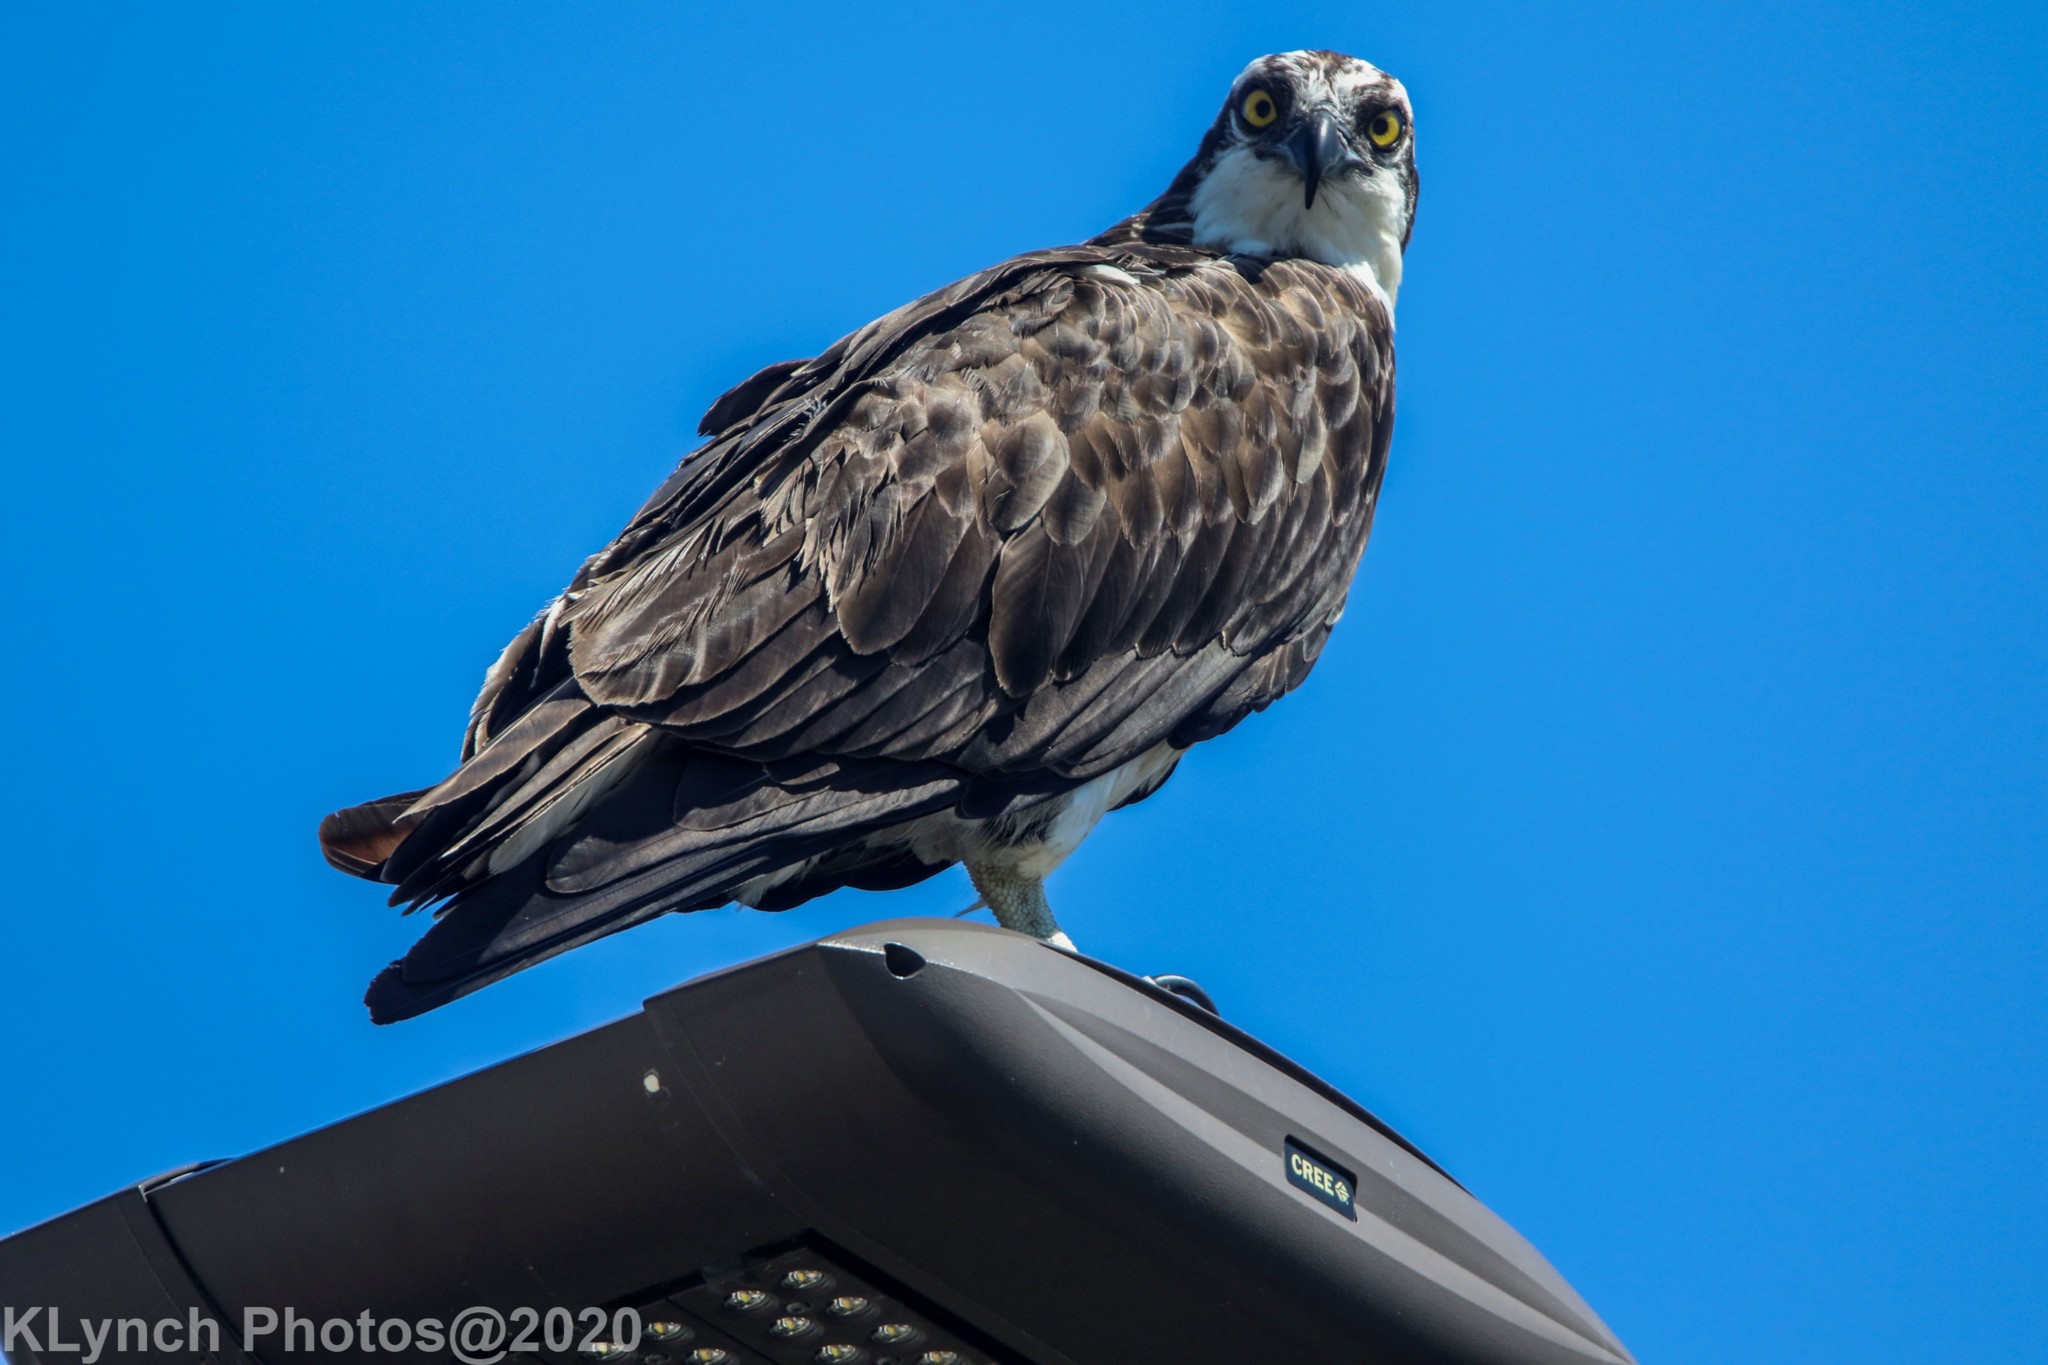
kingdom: Animalia
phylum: Chordata
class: Aves
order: Accipitriformes
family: Pandionidae
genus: Pandion
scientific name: Pandion haliaetus
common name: Osprey
